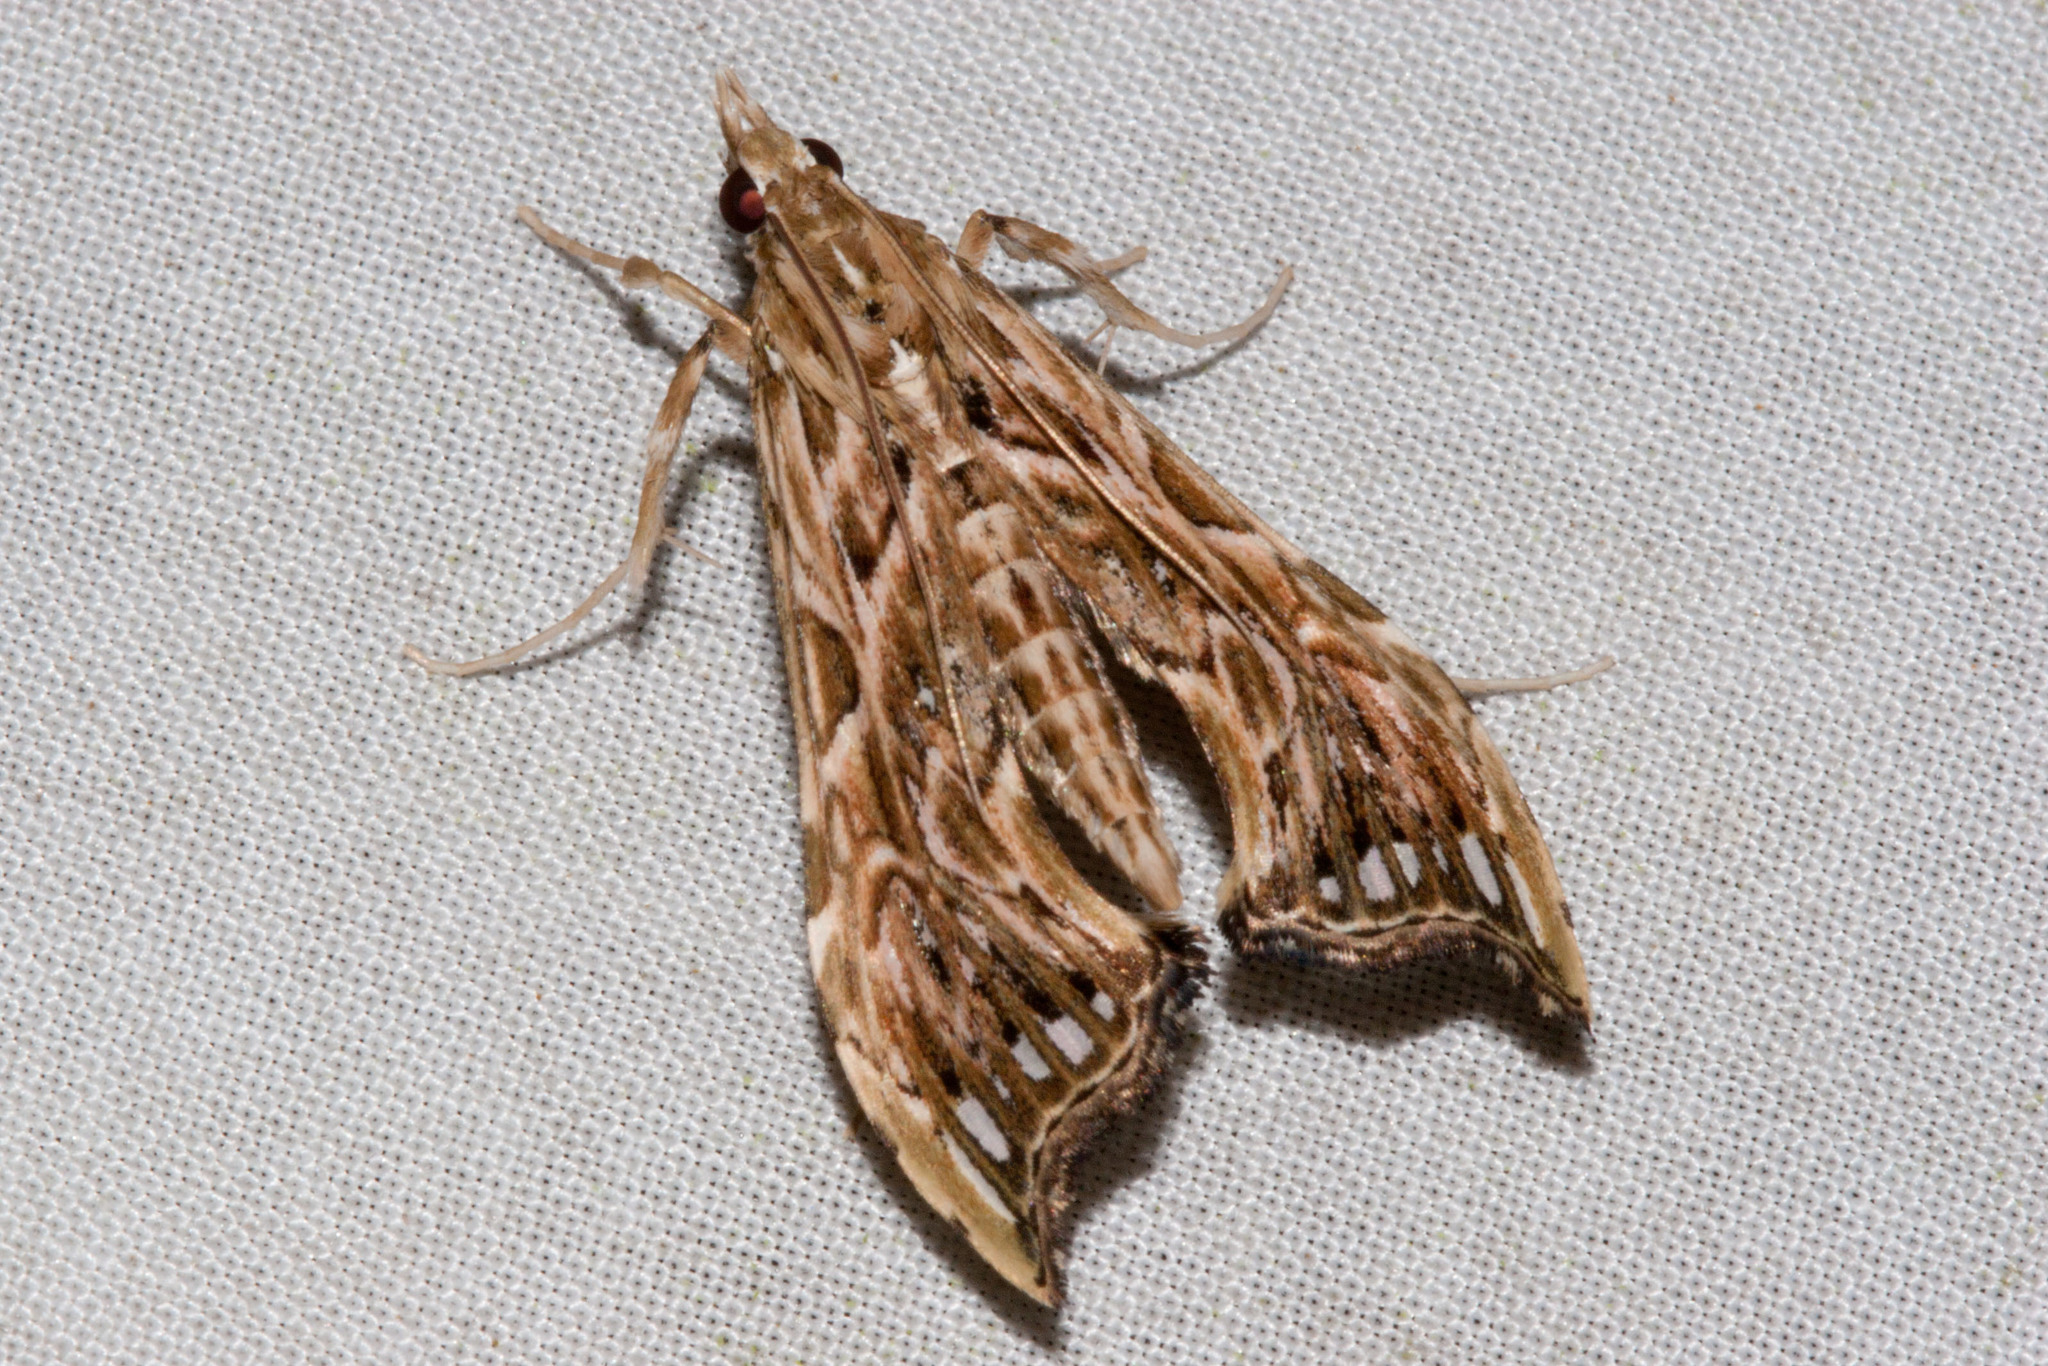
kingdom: Animalia
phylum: Arthropoda
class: Insecta
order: Lepidoptera
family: Crambidae
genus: Rhectosemia
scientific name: Rhectosemia vausignalis
